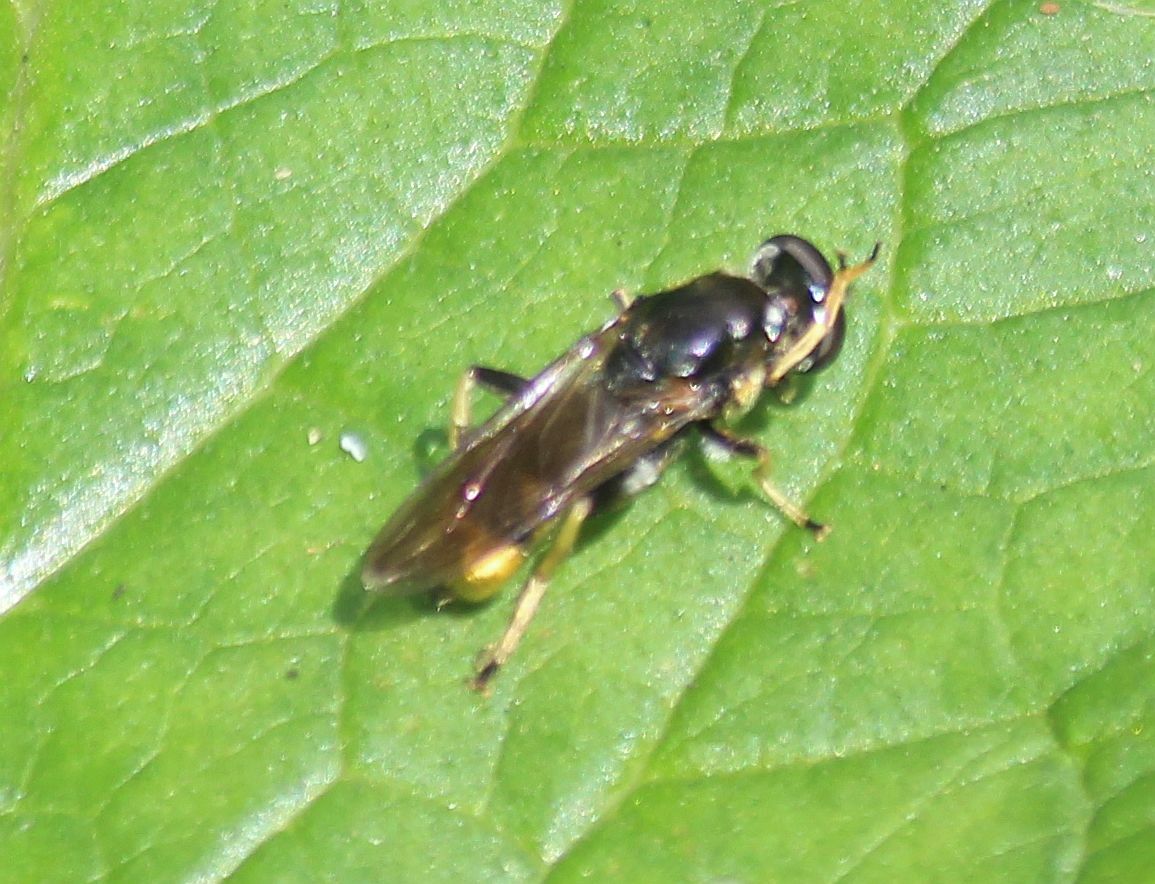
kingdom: Animalia
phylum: Arthropoda
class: Insecta
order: Diptera
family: Syrphidae
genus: Xylota
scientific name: Xylota
